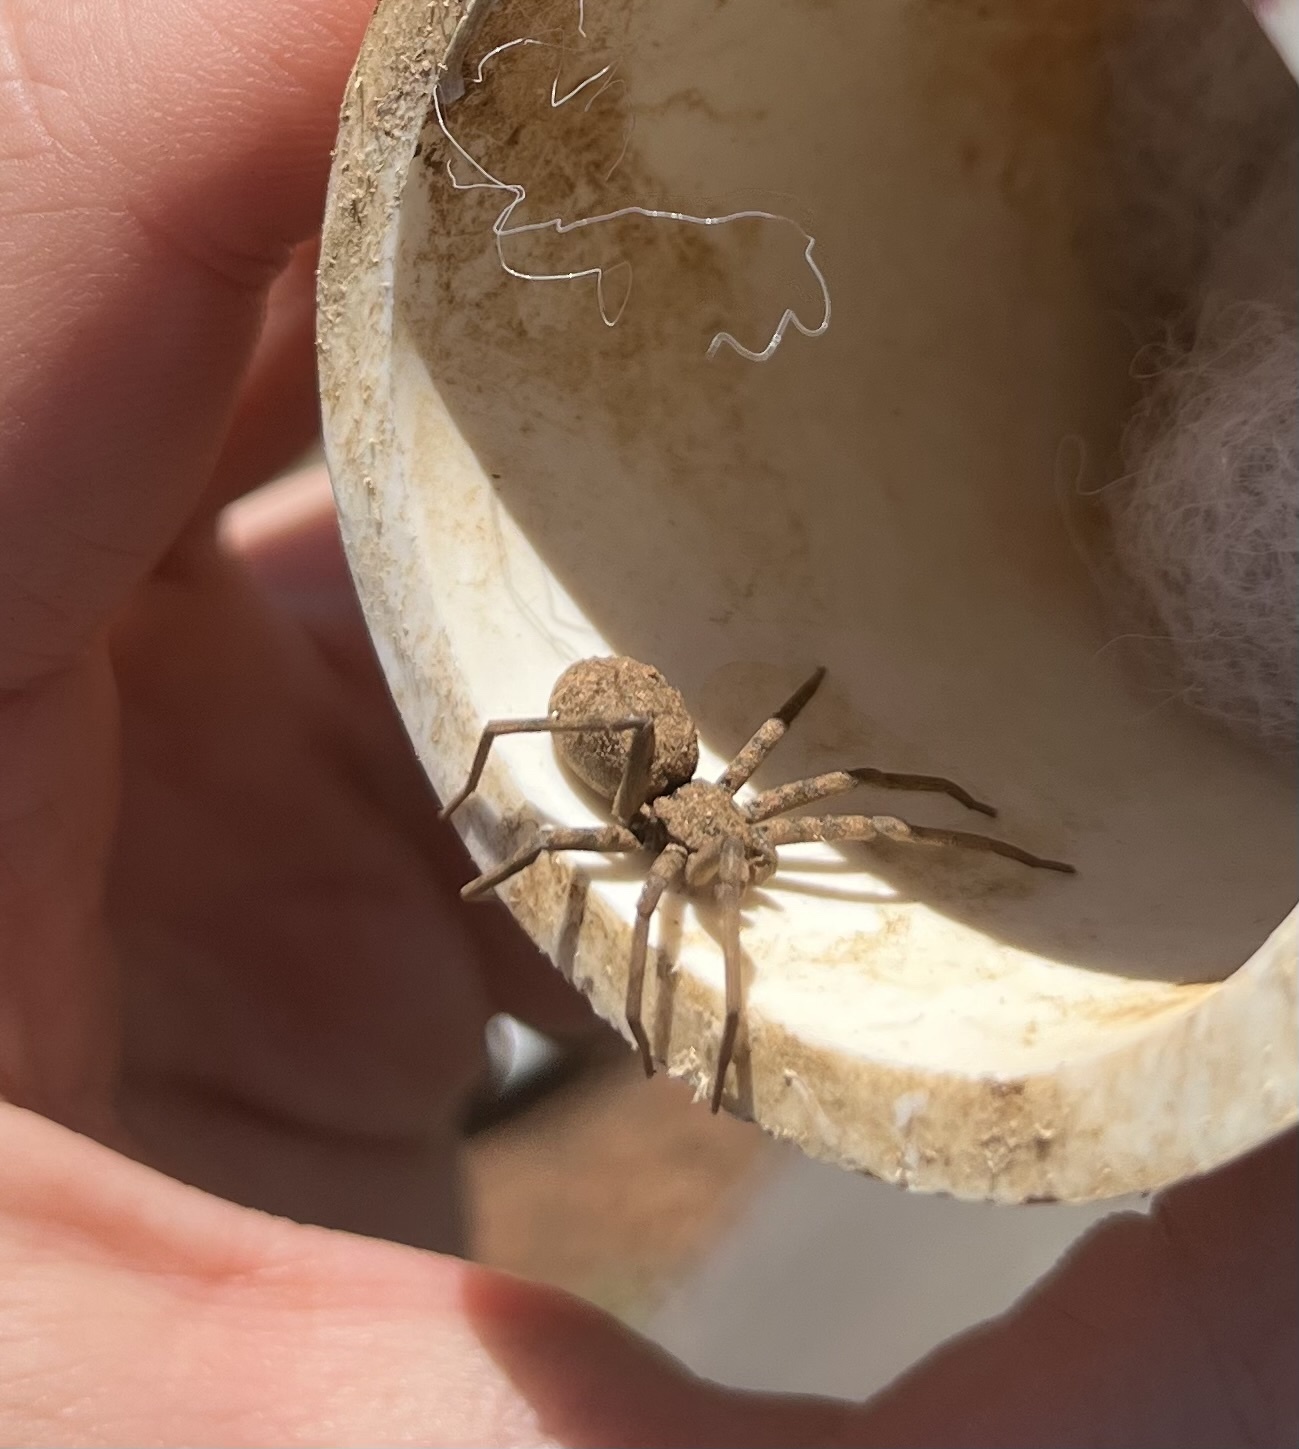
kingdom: Animalia
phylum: Arthropoda
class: Arachnida
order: Araneae
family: Homalonychidae
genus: Homalonychus
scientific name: Homalonychus theologus
